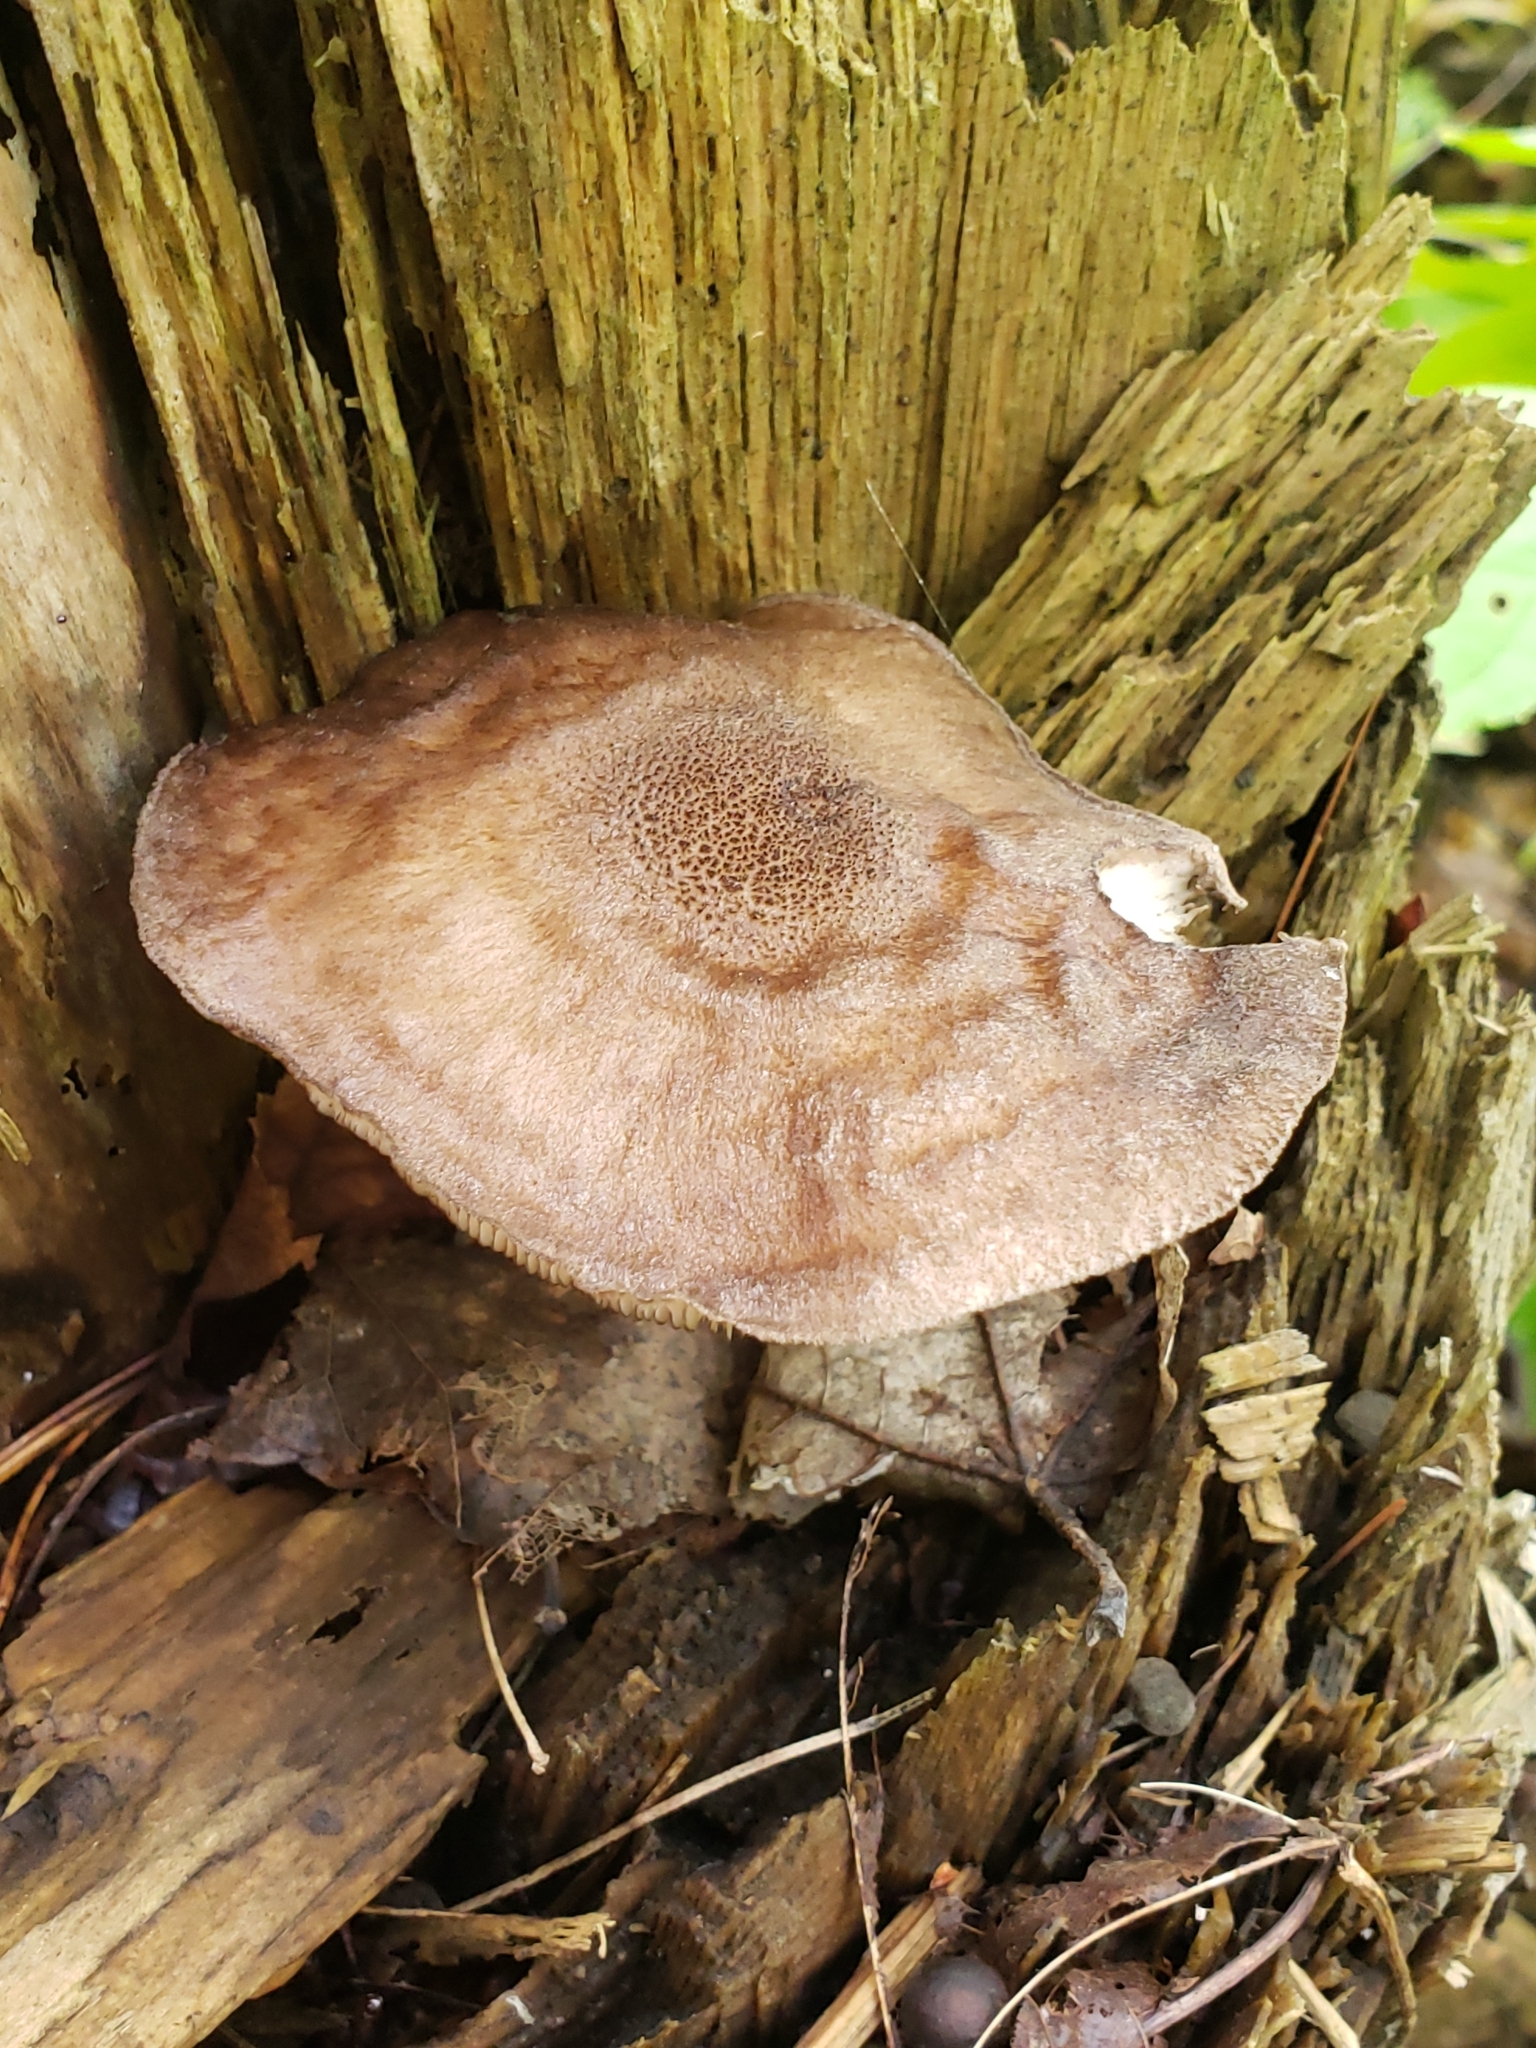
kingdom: Fungi
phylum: Basidiomycota
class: Agaricomycetes
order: Agaricales
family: Pluteaceae
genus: Pluteus
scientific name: Pluteus atromarginatus
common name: Blackedged shield
